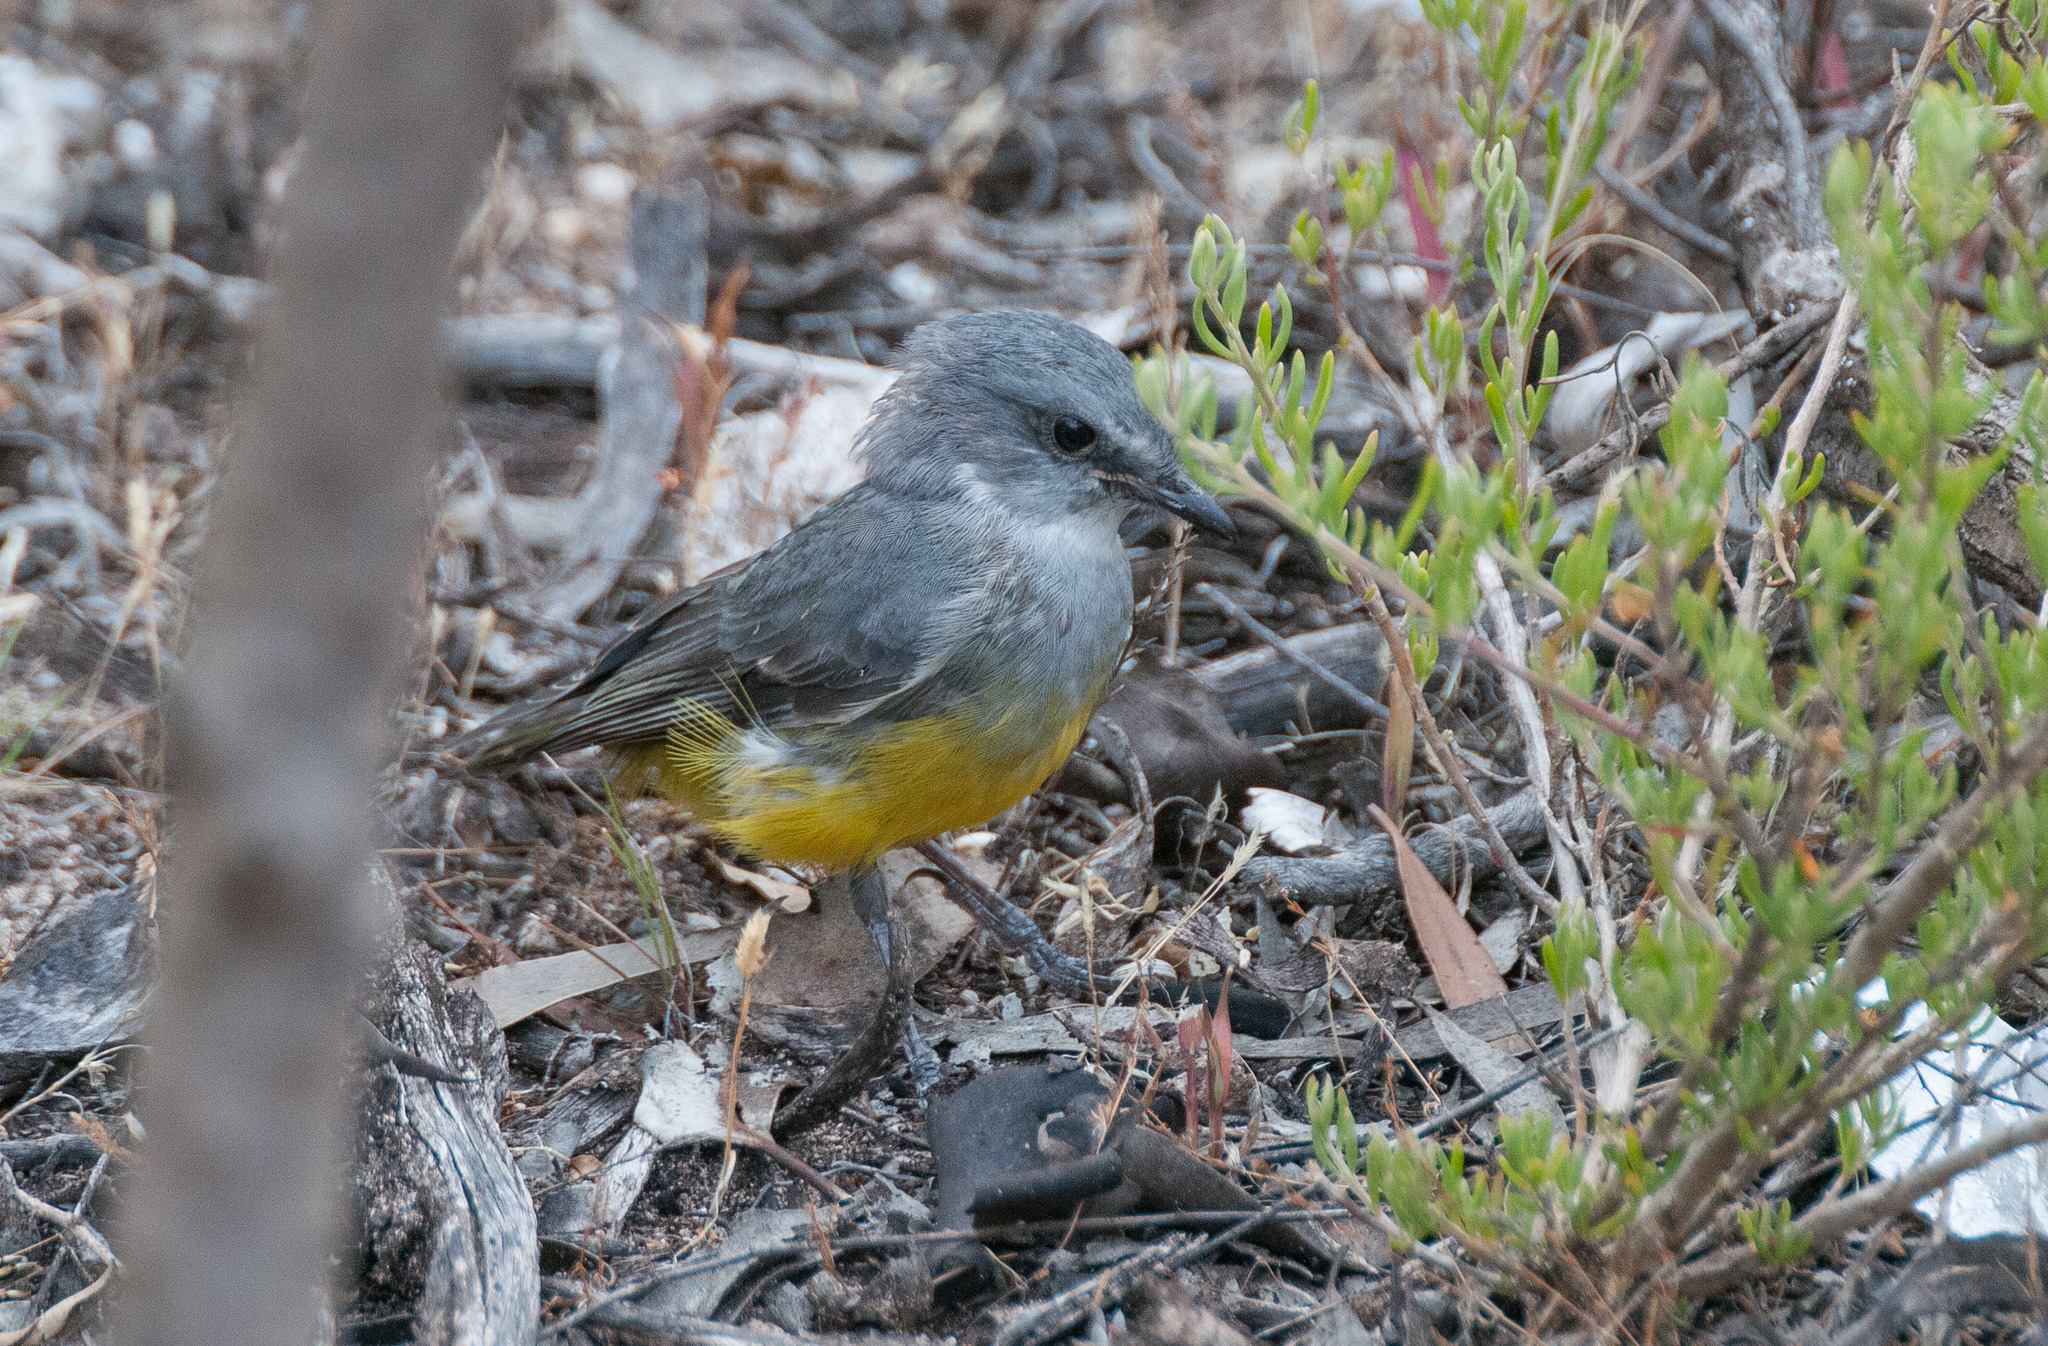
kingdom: Animalia
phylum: Chordata
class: Aves
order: Passeriformes
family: Petroicidae
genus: Eopsaltria
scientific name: Eopsaltria griseogularis
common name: Western yellow robin
